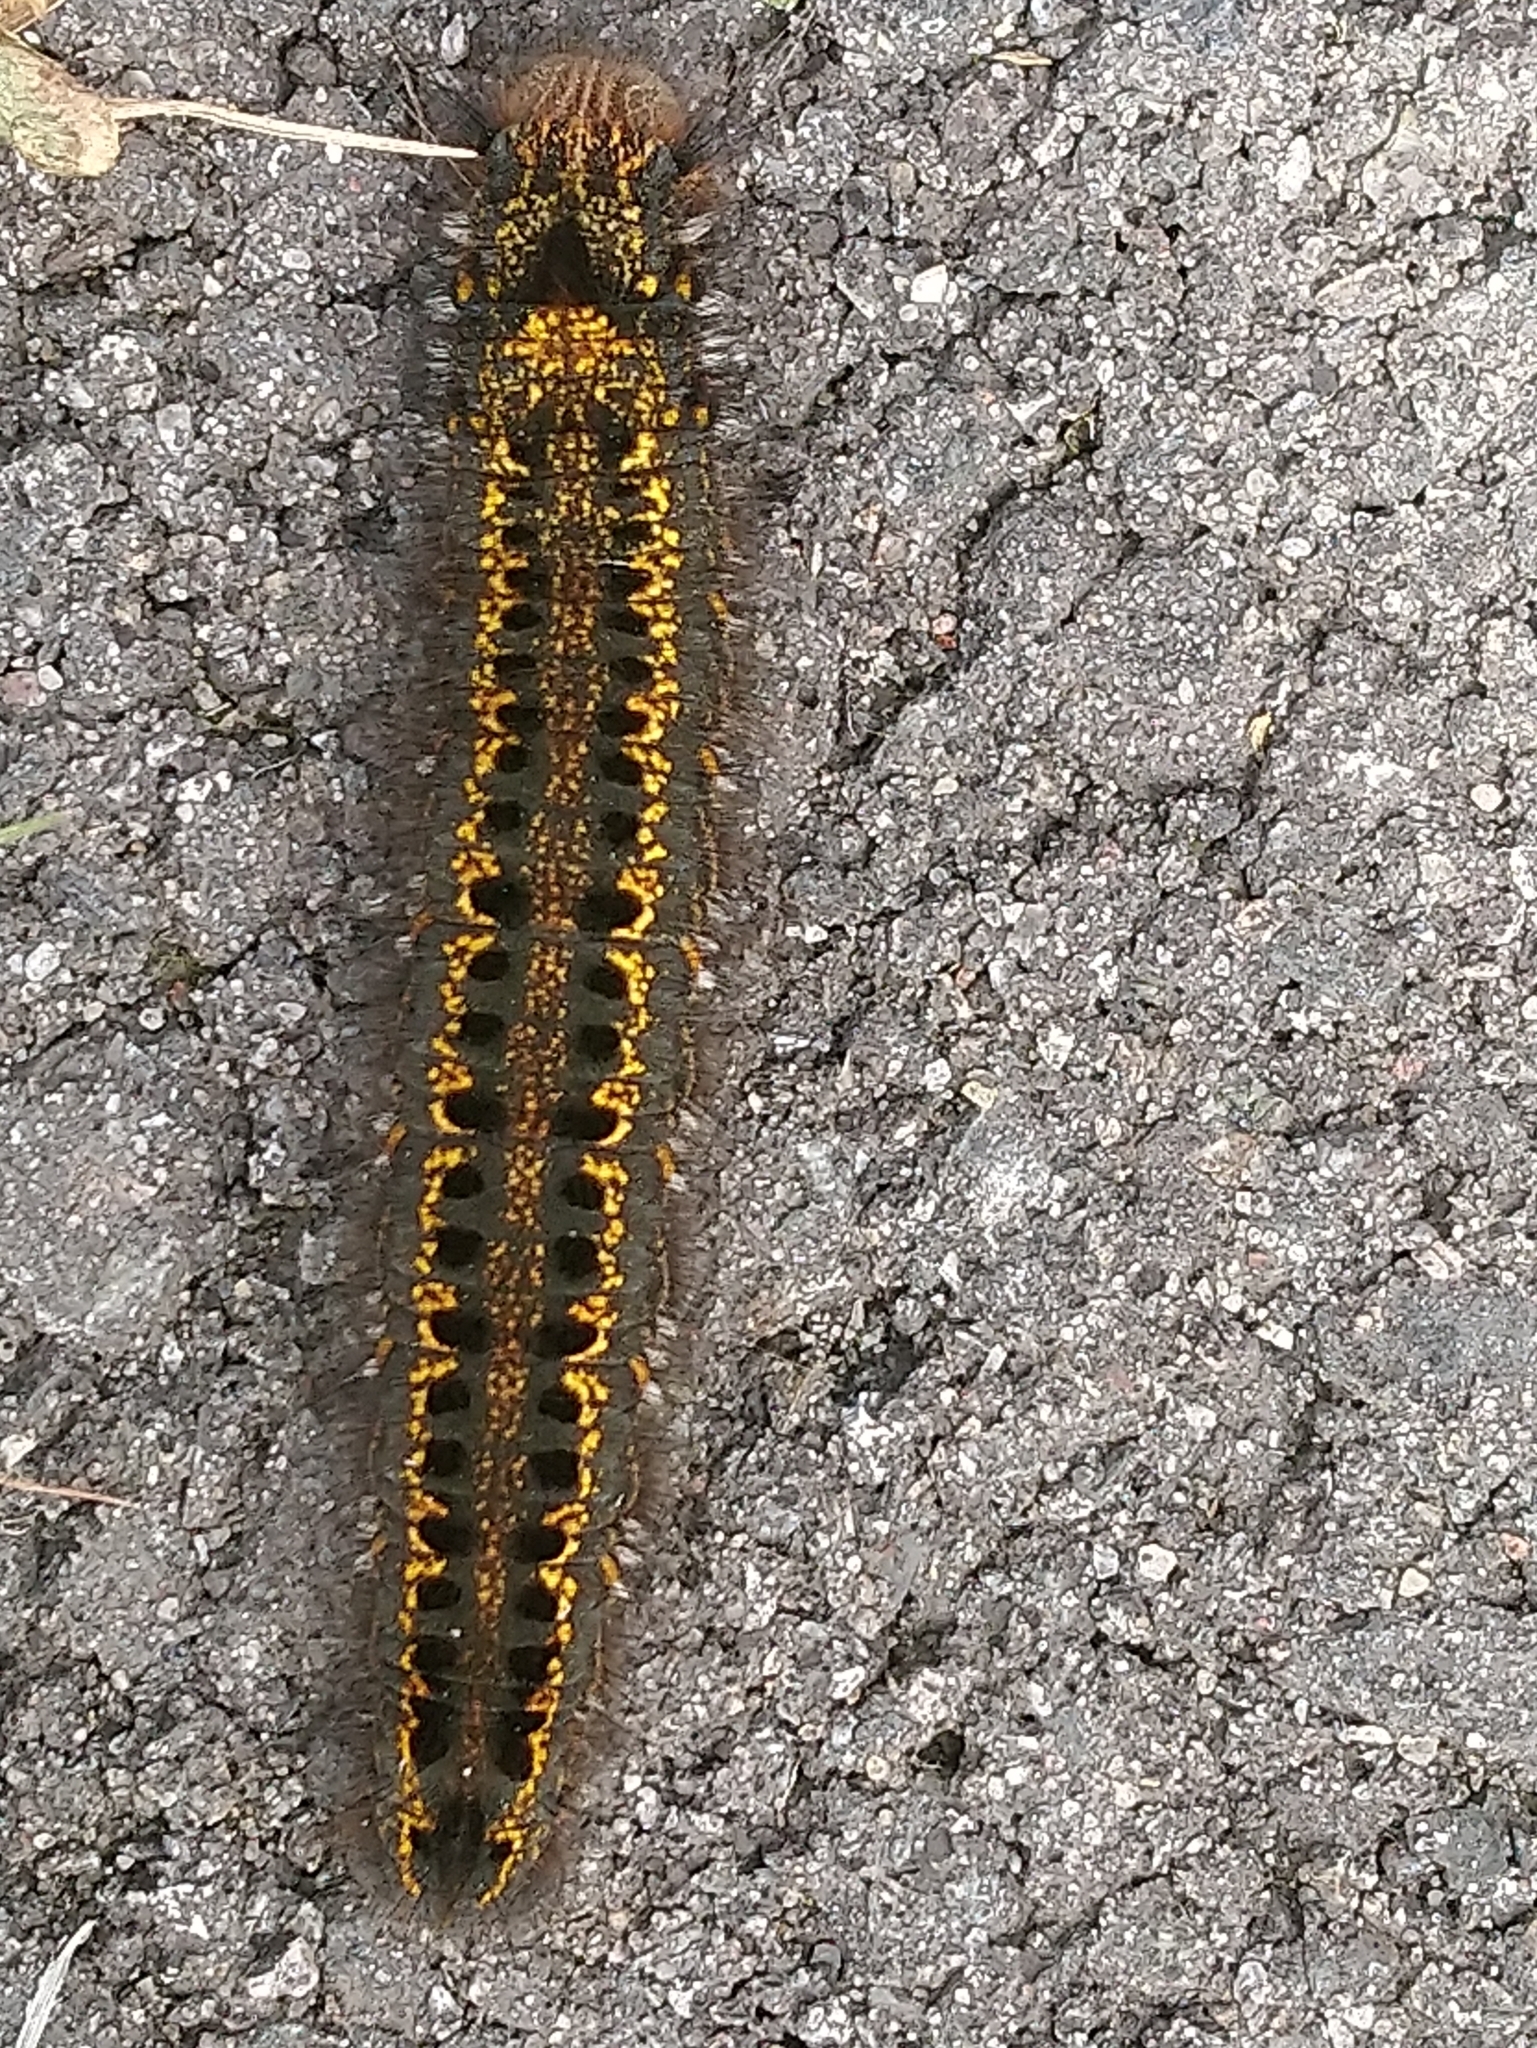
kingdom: Animalia
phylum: Arthropoda
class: Insecta
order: Lepidoptera
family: Lasiocampidae
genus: Euthrix
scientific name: Euthrix potatoria
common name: Drinker
